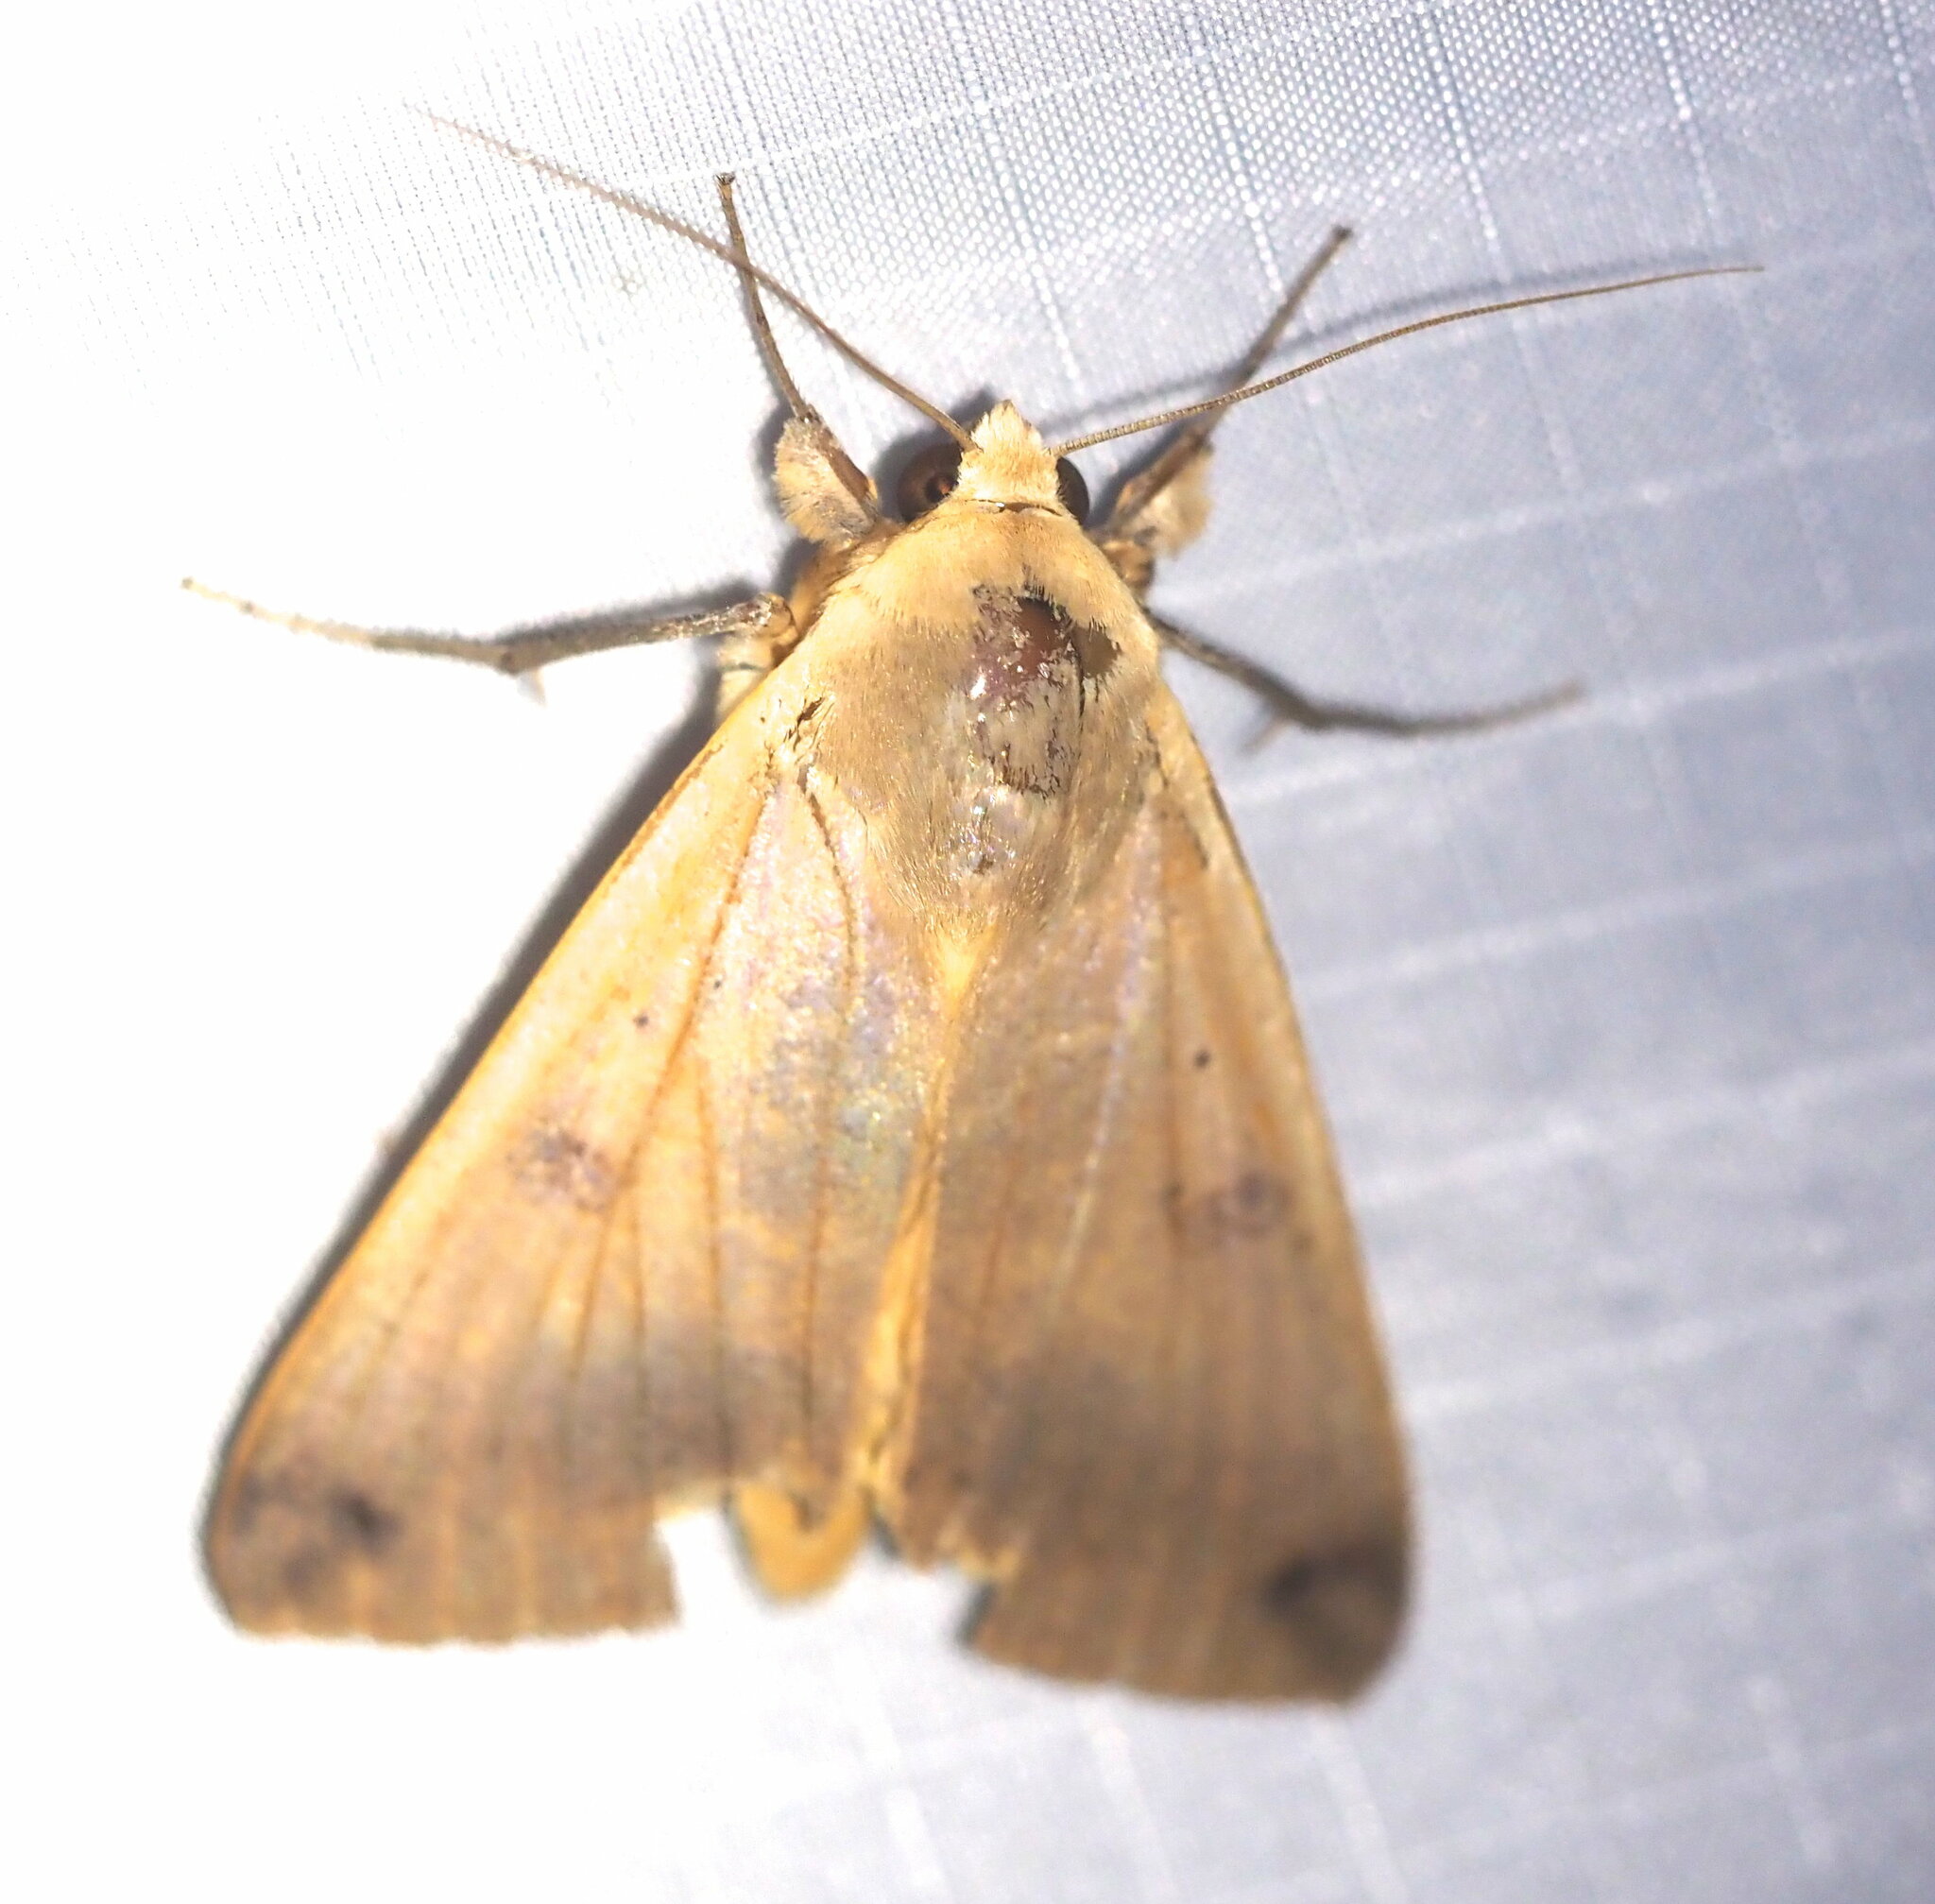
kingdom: Animalia
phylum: Arthropoda
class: Insecta
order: Lepidoptera
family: Erebidae
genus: Ophiusa
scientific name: Ophiusa disjungens
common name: Moth
